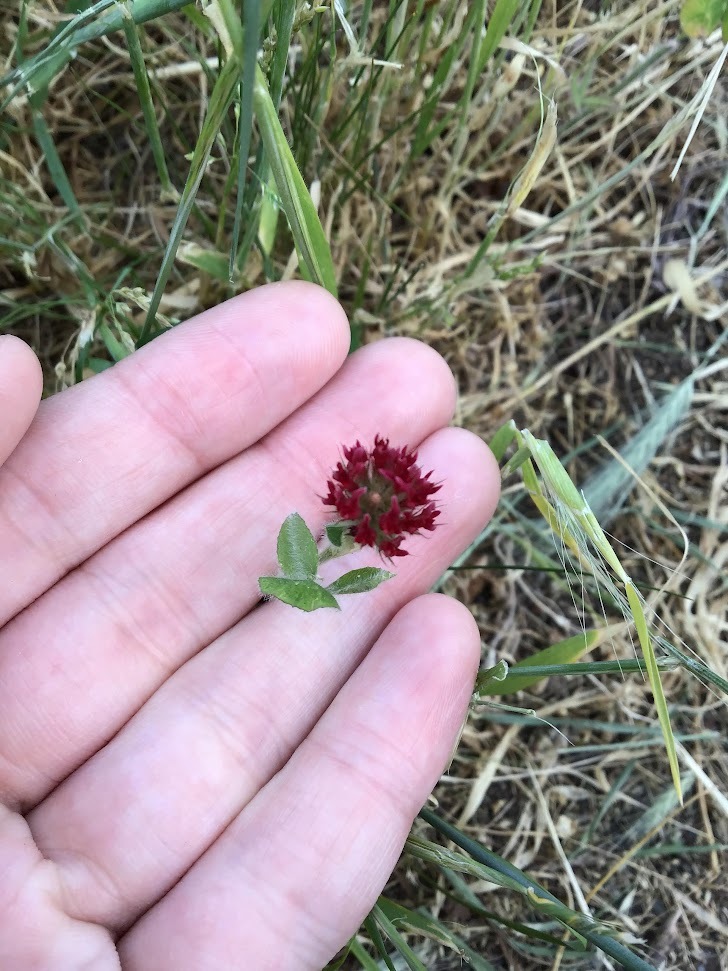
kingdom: Plantae
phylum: Tracheophyta
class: Magnoliopsida
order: Fabales
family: Fabaceae
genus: Trifolium
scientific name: Trifolium incarnatum
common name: Crimson clover
